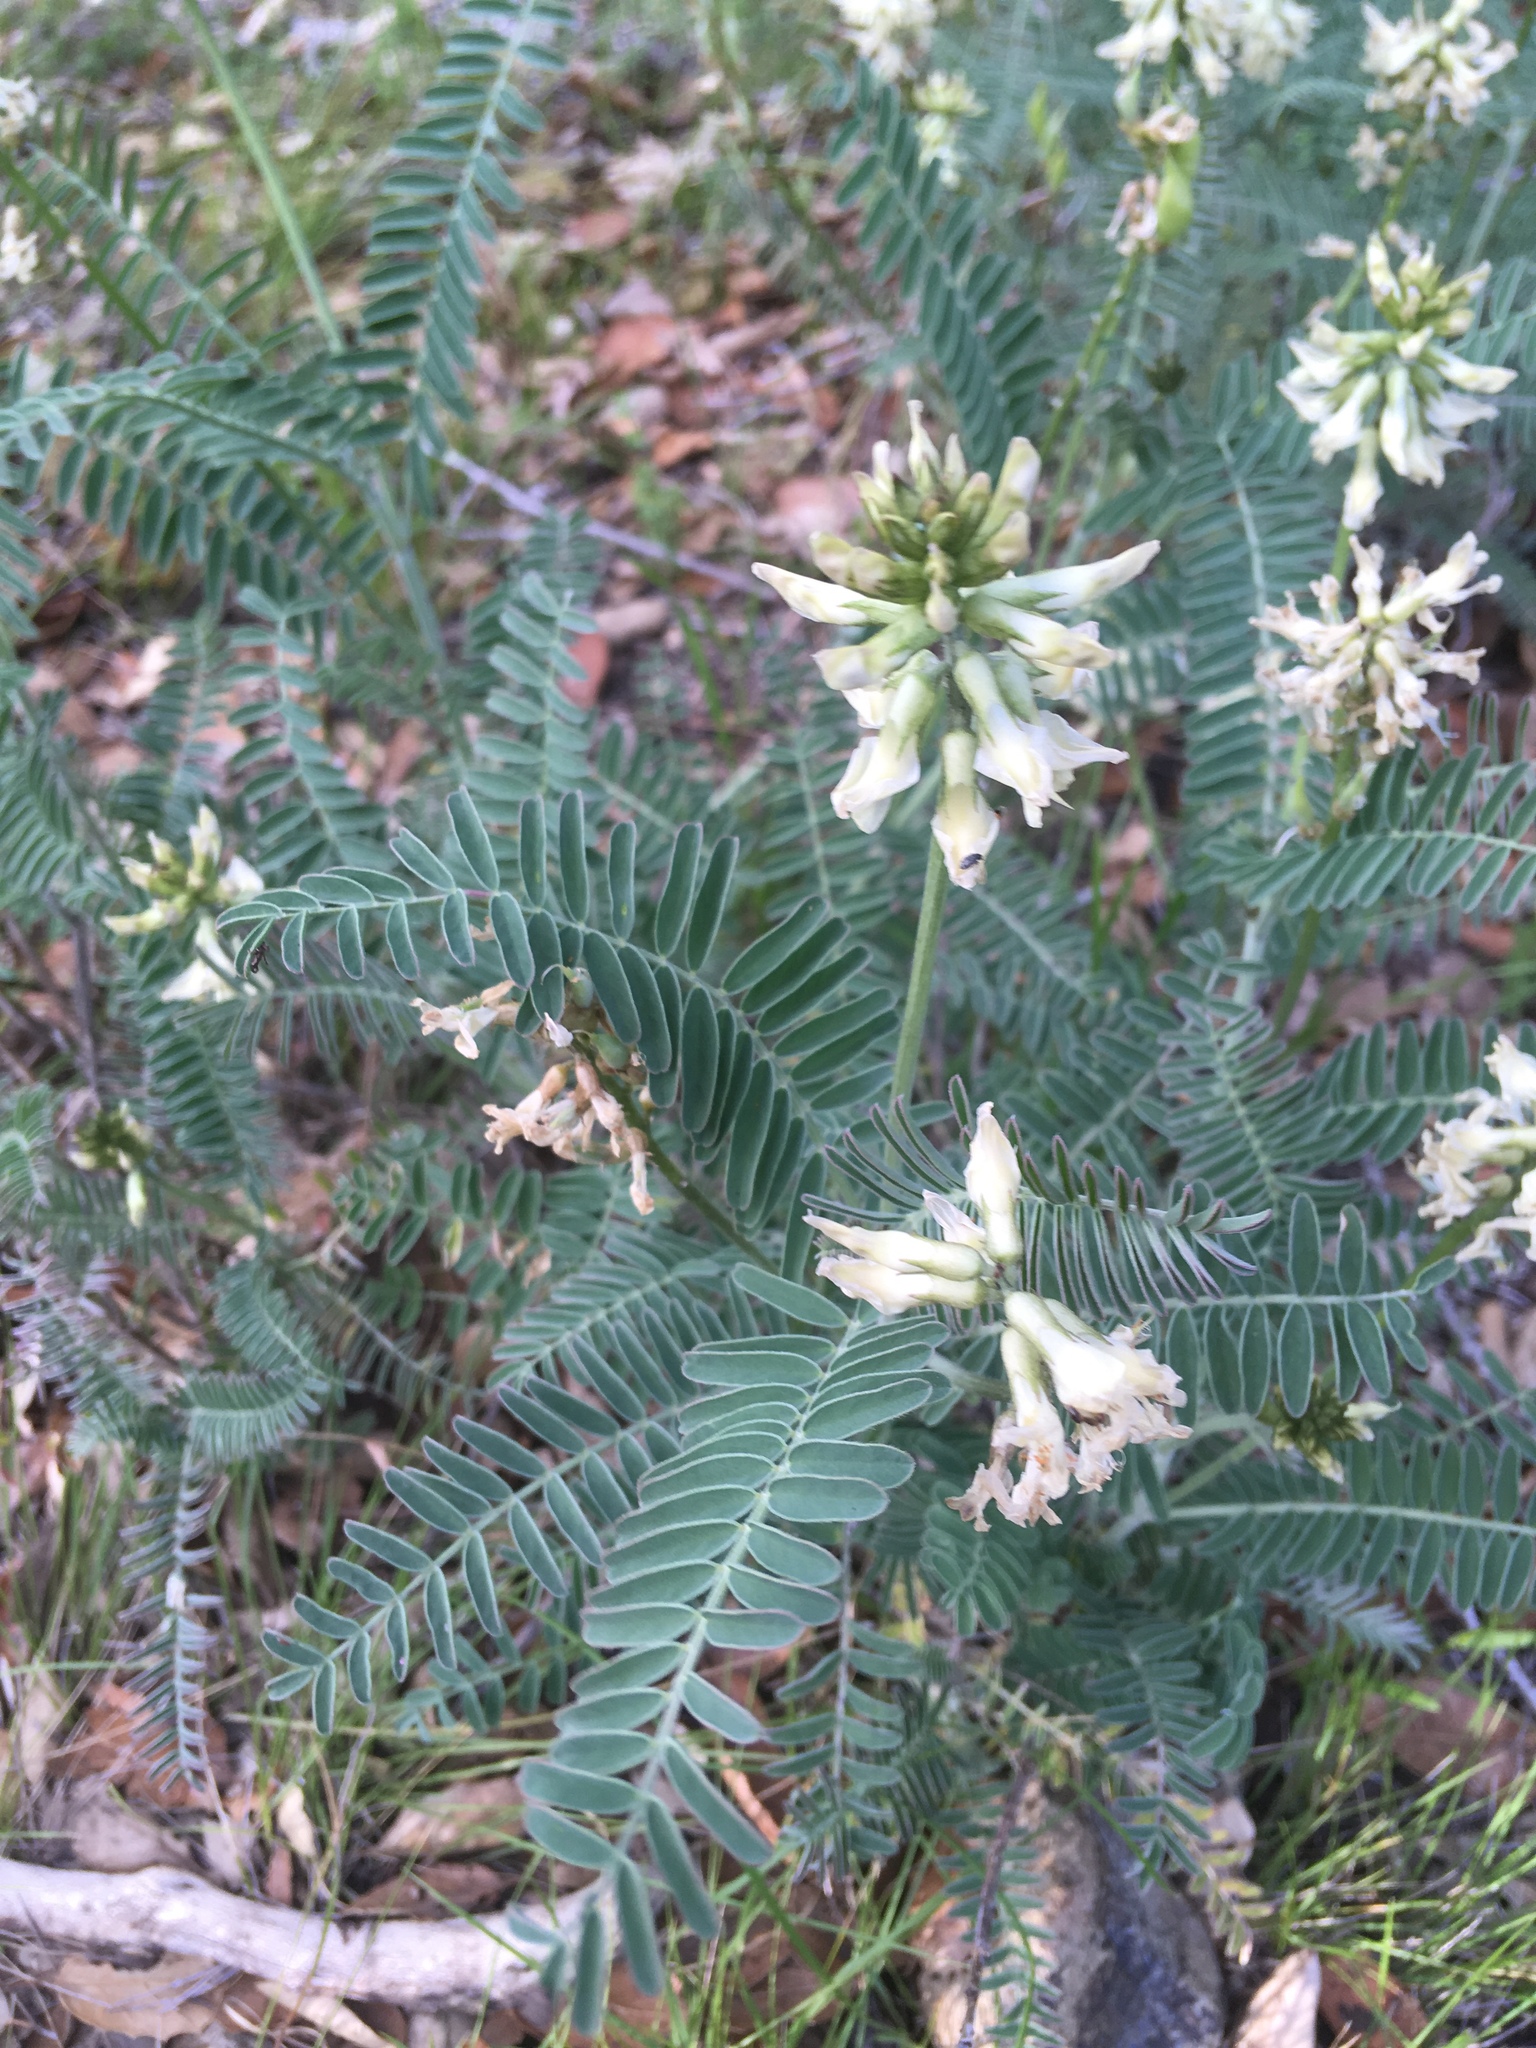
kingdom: Plantae
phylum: Tracheophyta
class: Magnoliopsida
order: Fabales
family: Fabaceae
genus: Astragalus
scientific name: Astragalus curtipes
